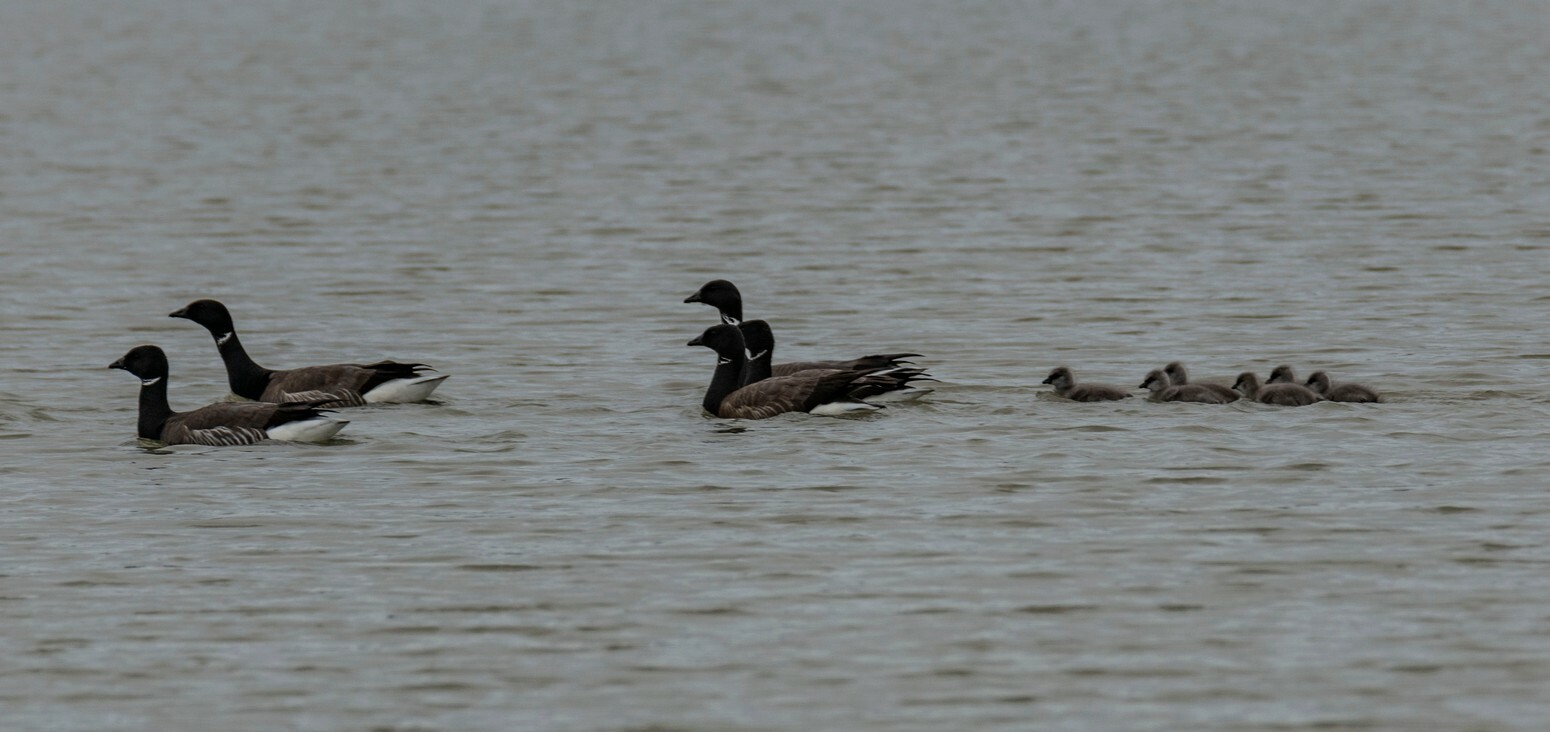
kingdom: Animalia
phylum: Chordata
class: Aves
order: Anseriformes
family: Anatidae
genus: Branta
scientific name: Branta bernicla
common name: Brant goose
